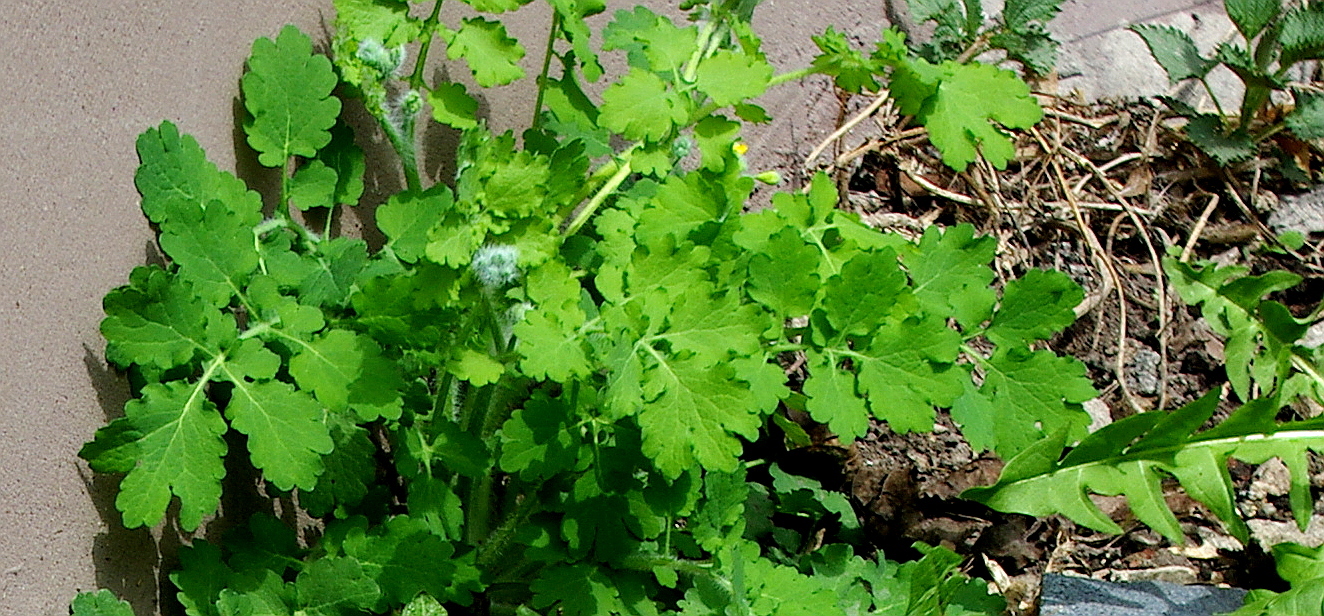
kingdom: Plantae
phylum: Tracheophyta
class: Magnoliopsida
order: Ranunculales
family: Papaveraceae
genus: Chelidonium
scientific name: Chelidonium majus
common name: Greater celandine
